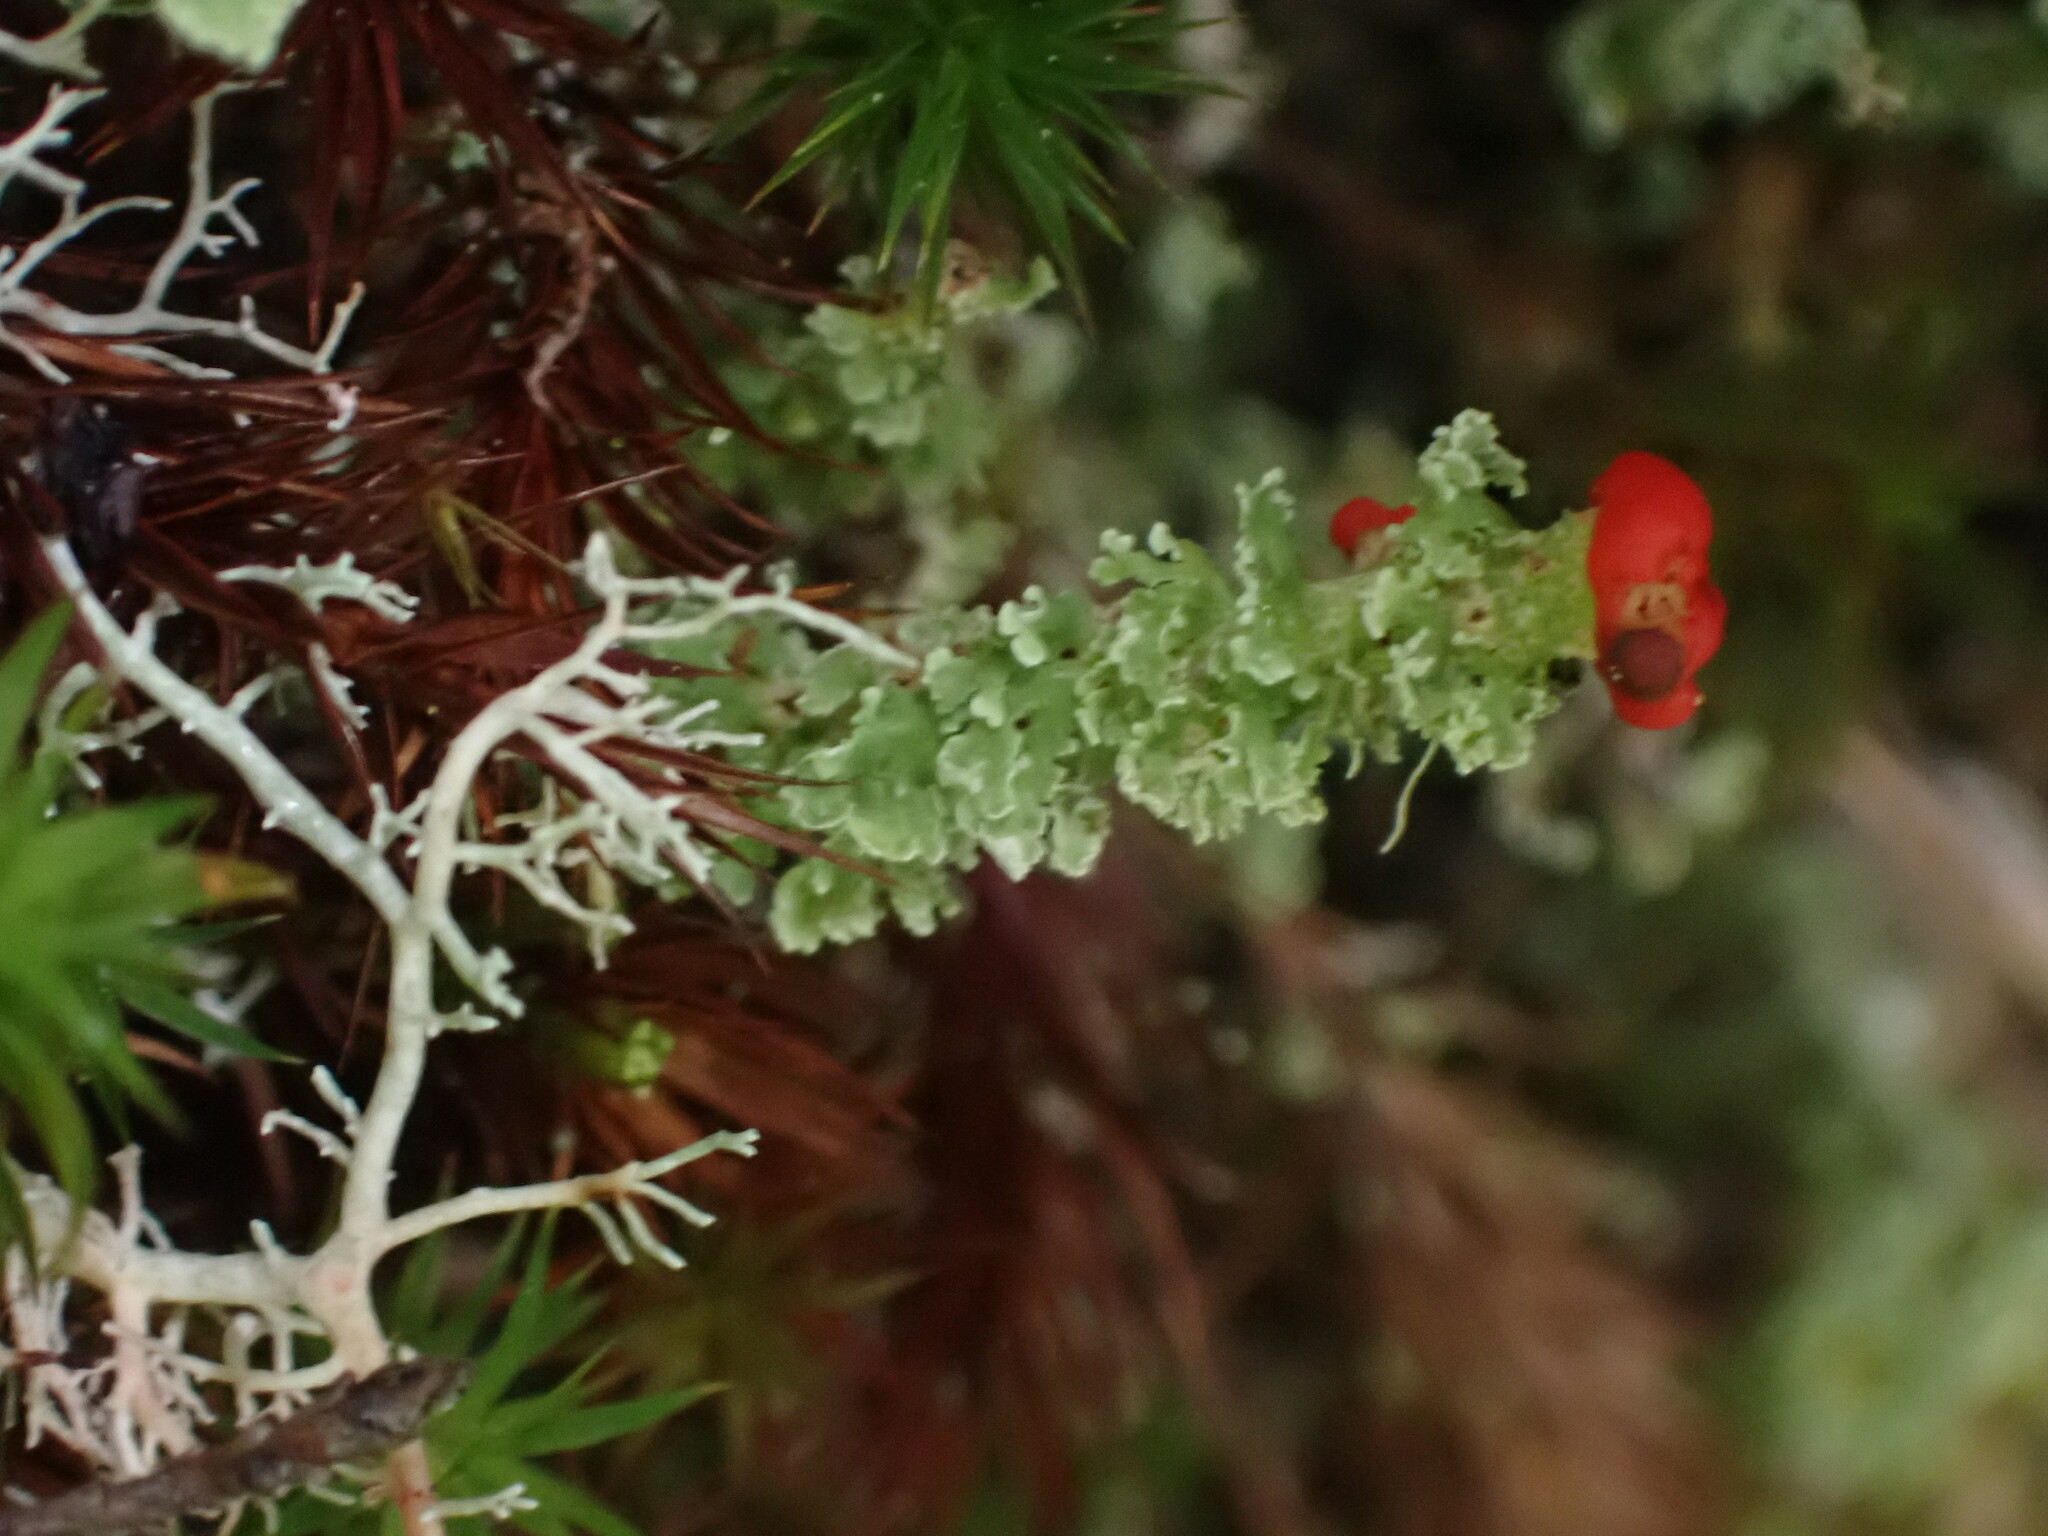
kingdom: Fungi
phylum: Ascomycota
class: Lecanoromycetes
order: Lecanorales
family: Cladoniaceae
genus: Cladonia
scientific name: Cladonia bellidiflora
